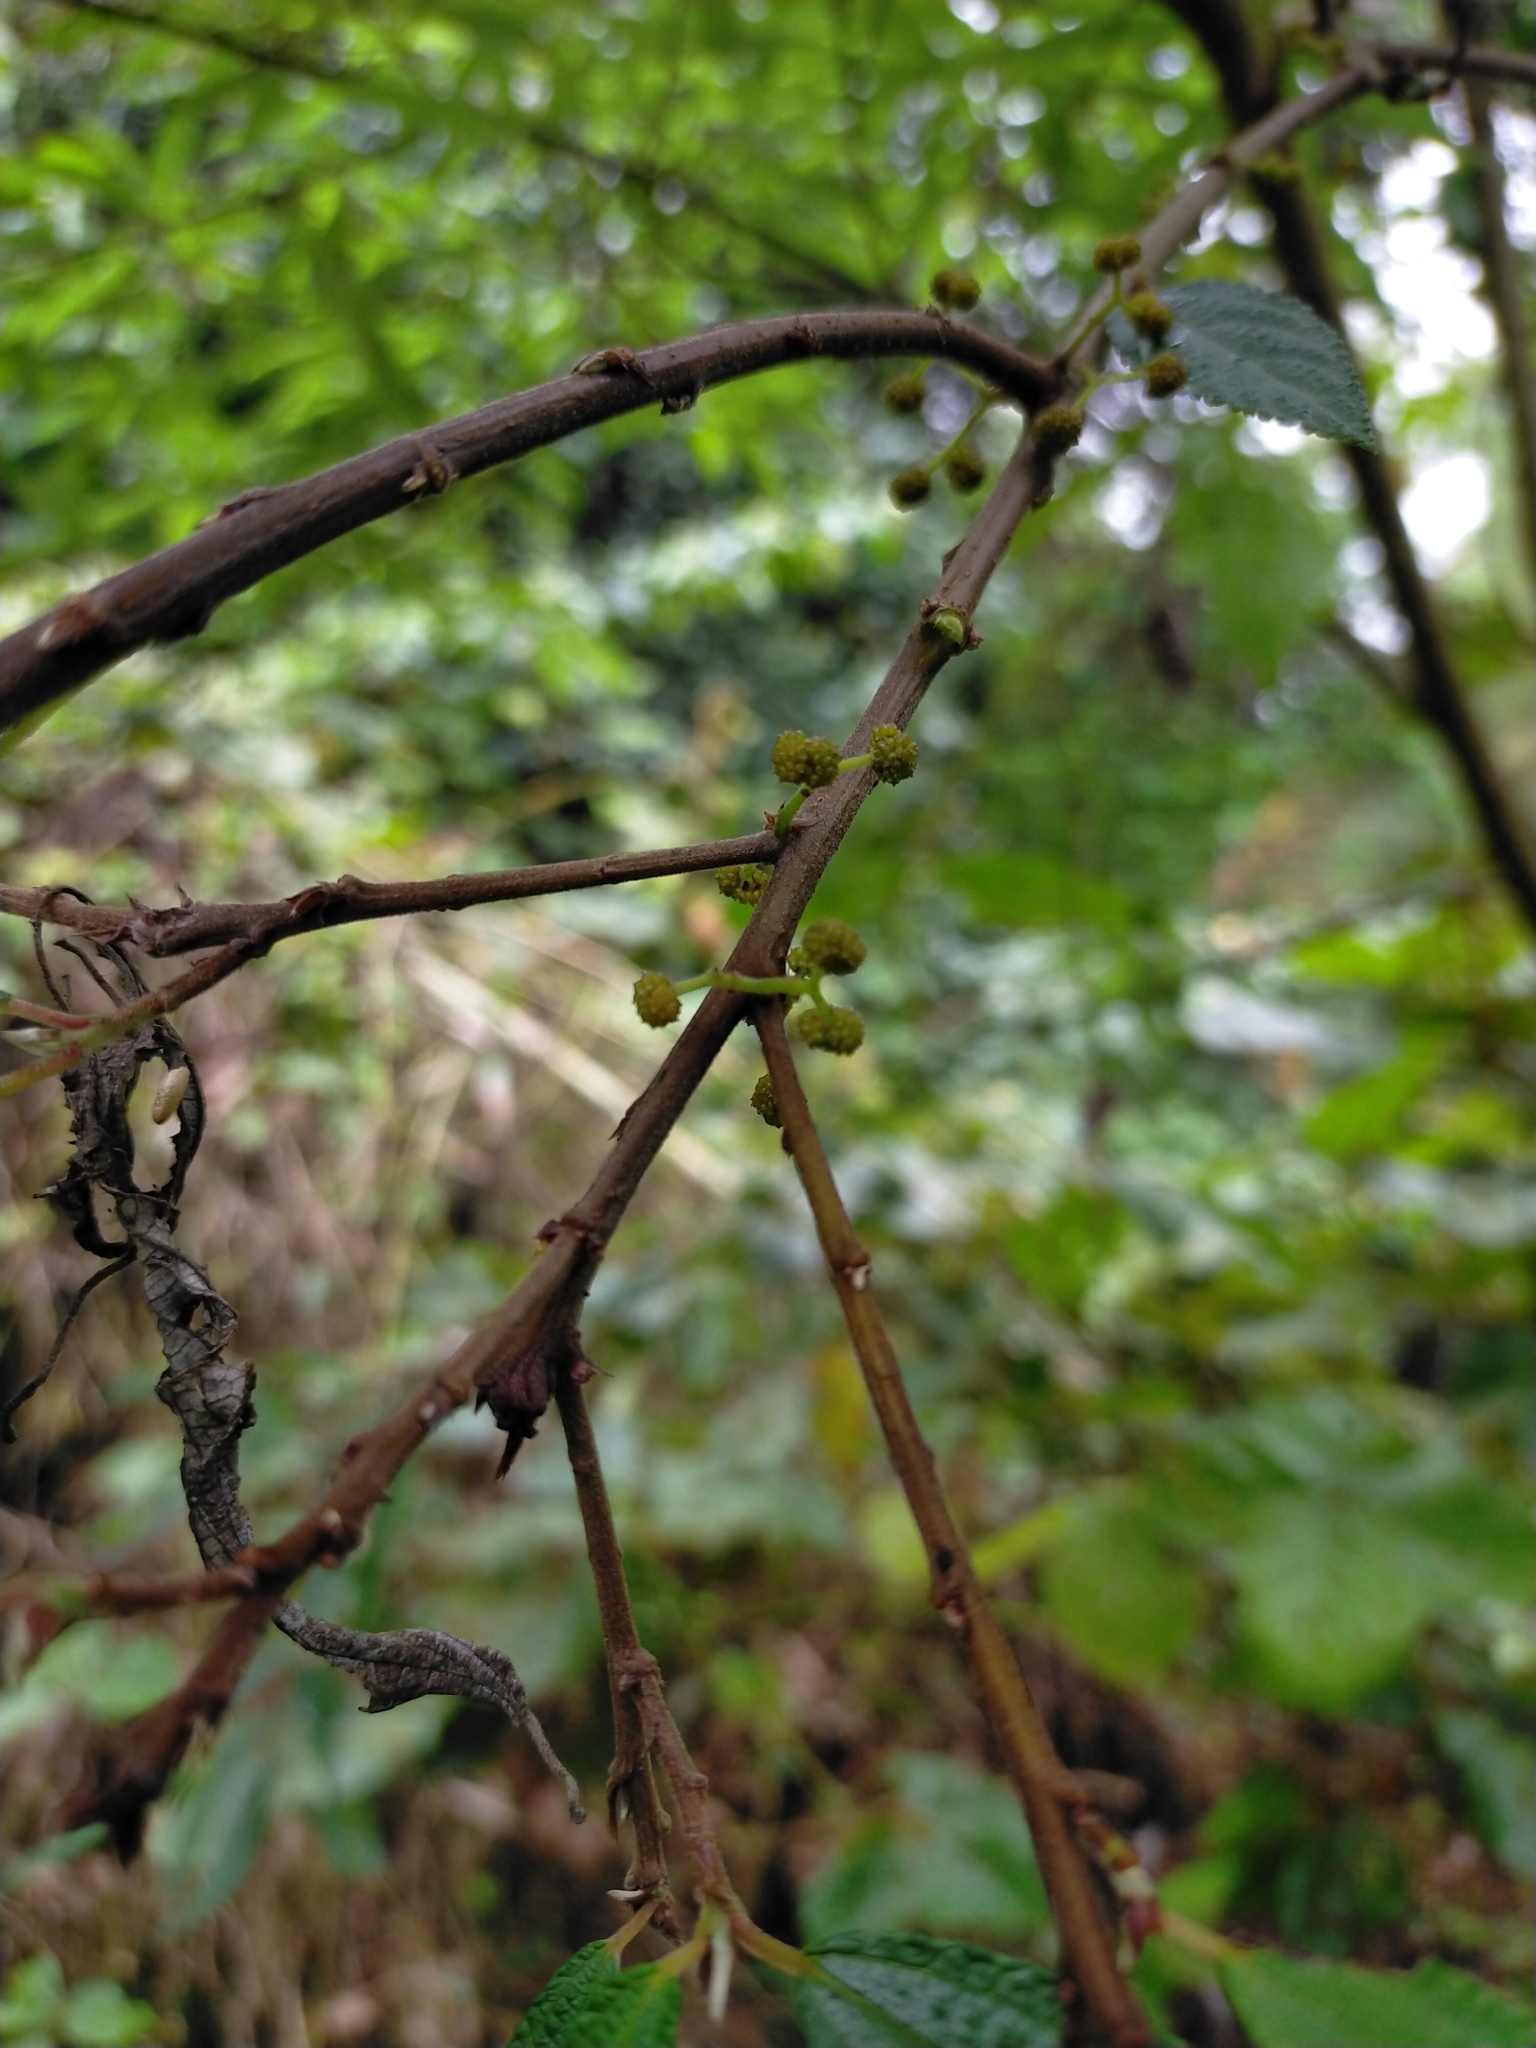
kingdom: Plantae
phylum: Tracheophyta
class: Magnoliopsida
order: Rosales
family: Urticaceae
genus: Debregeasia
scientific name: Debregeasia orientalis
